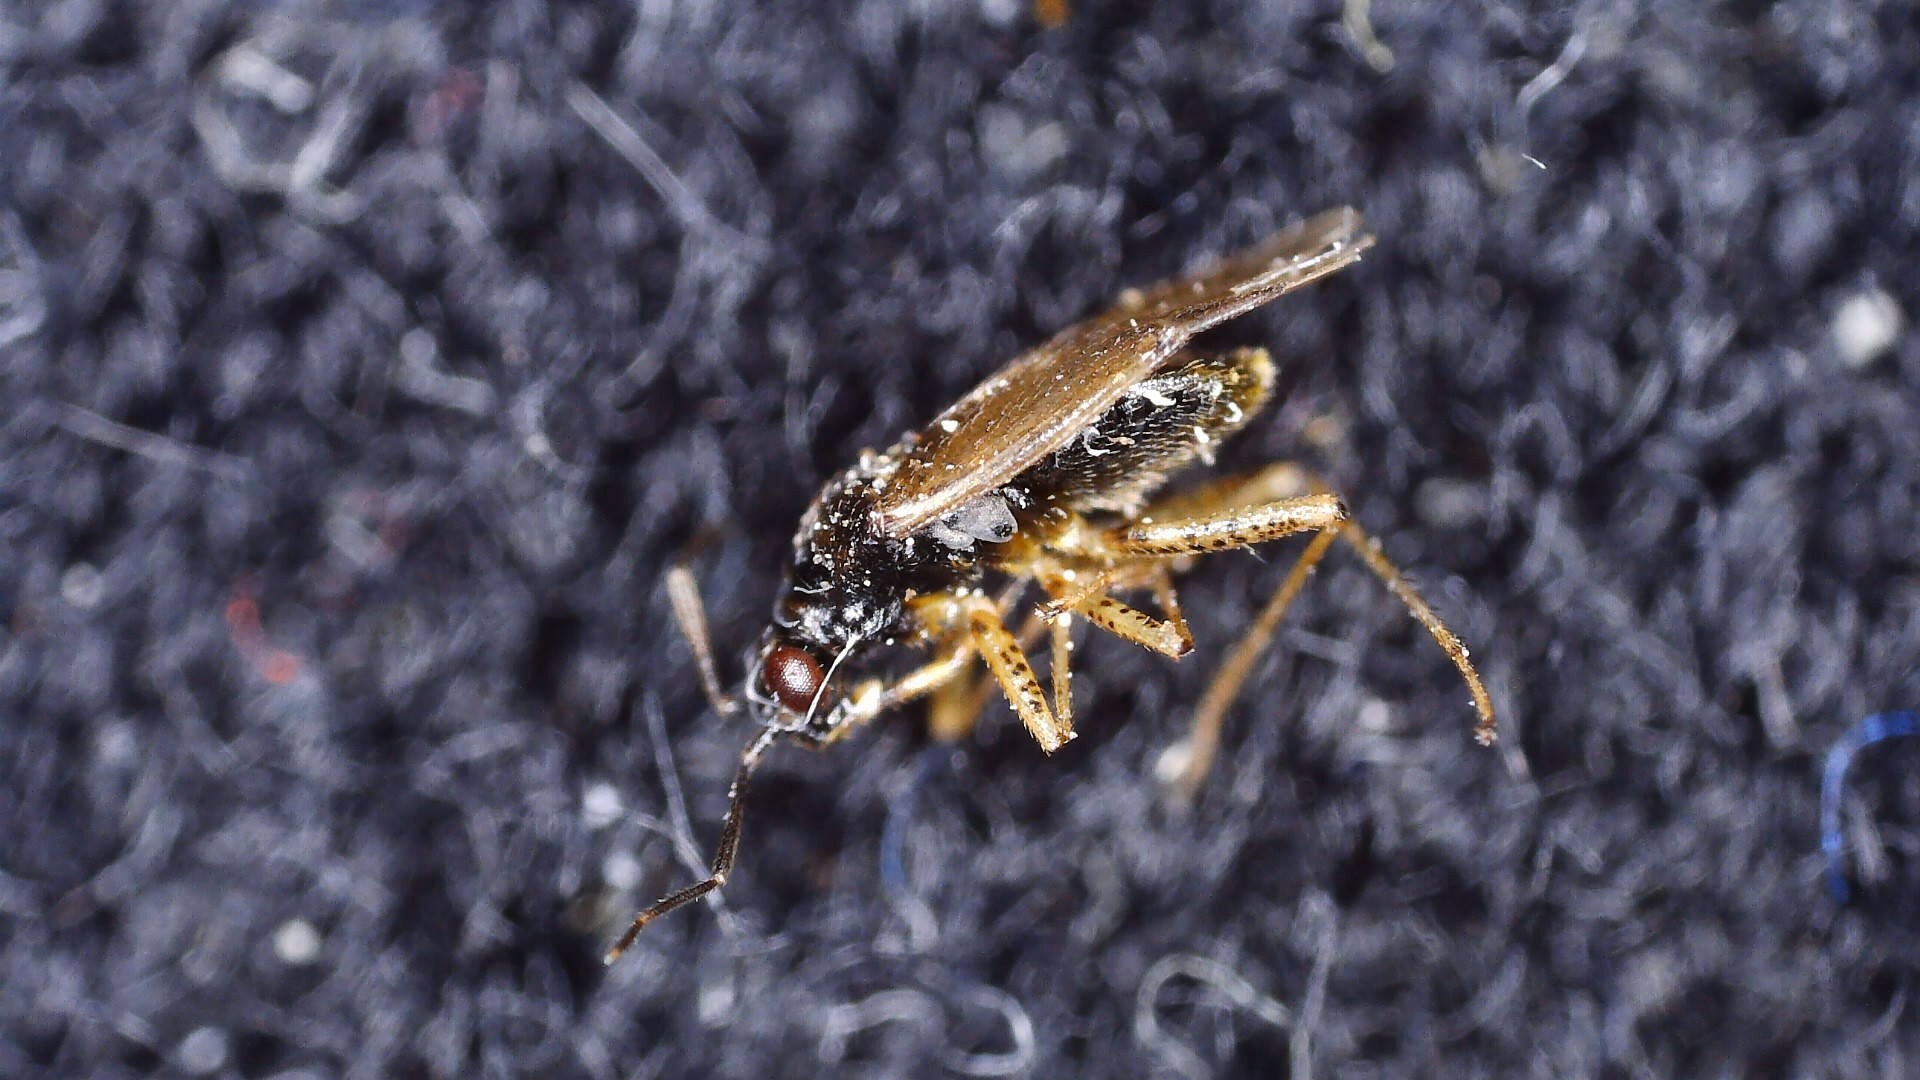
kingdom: Animalia
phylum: Arthropoda
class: Insecta
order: Hemiptera
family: Miridae
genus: Dicyphus
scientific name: Dicyphus globulifer
